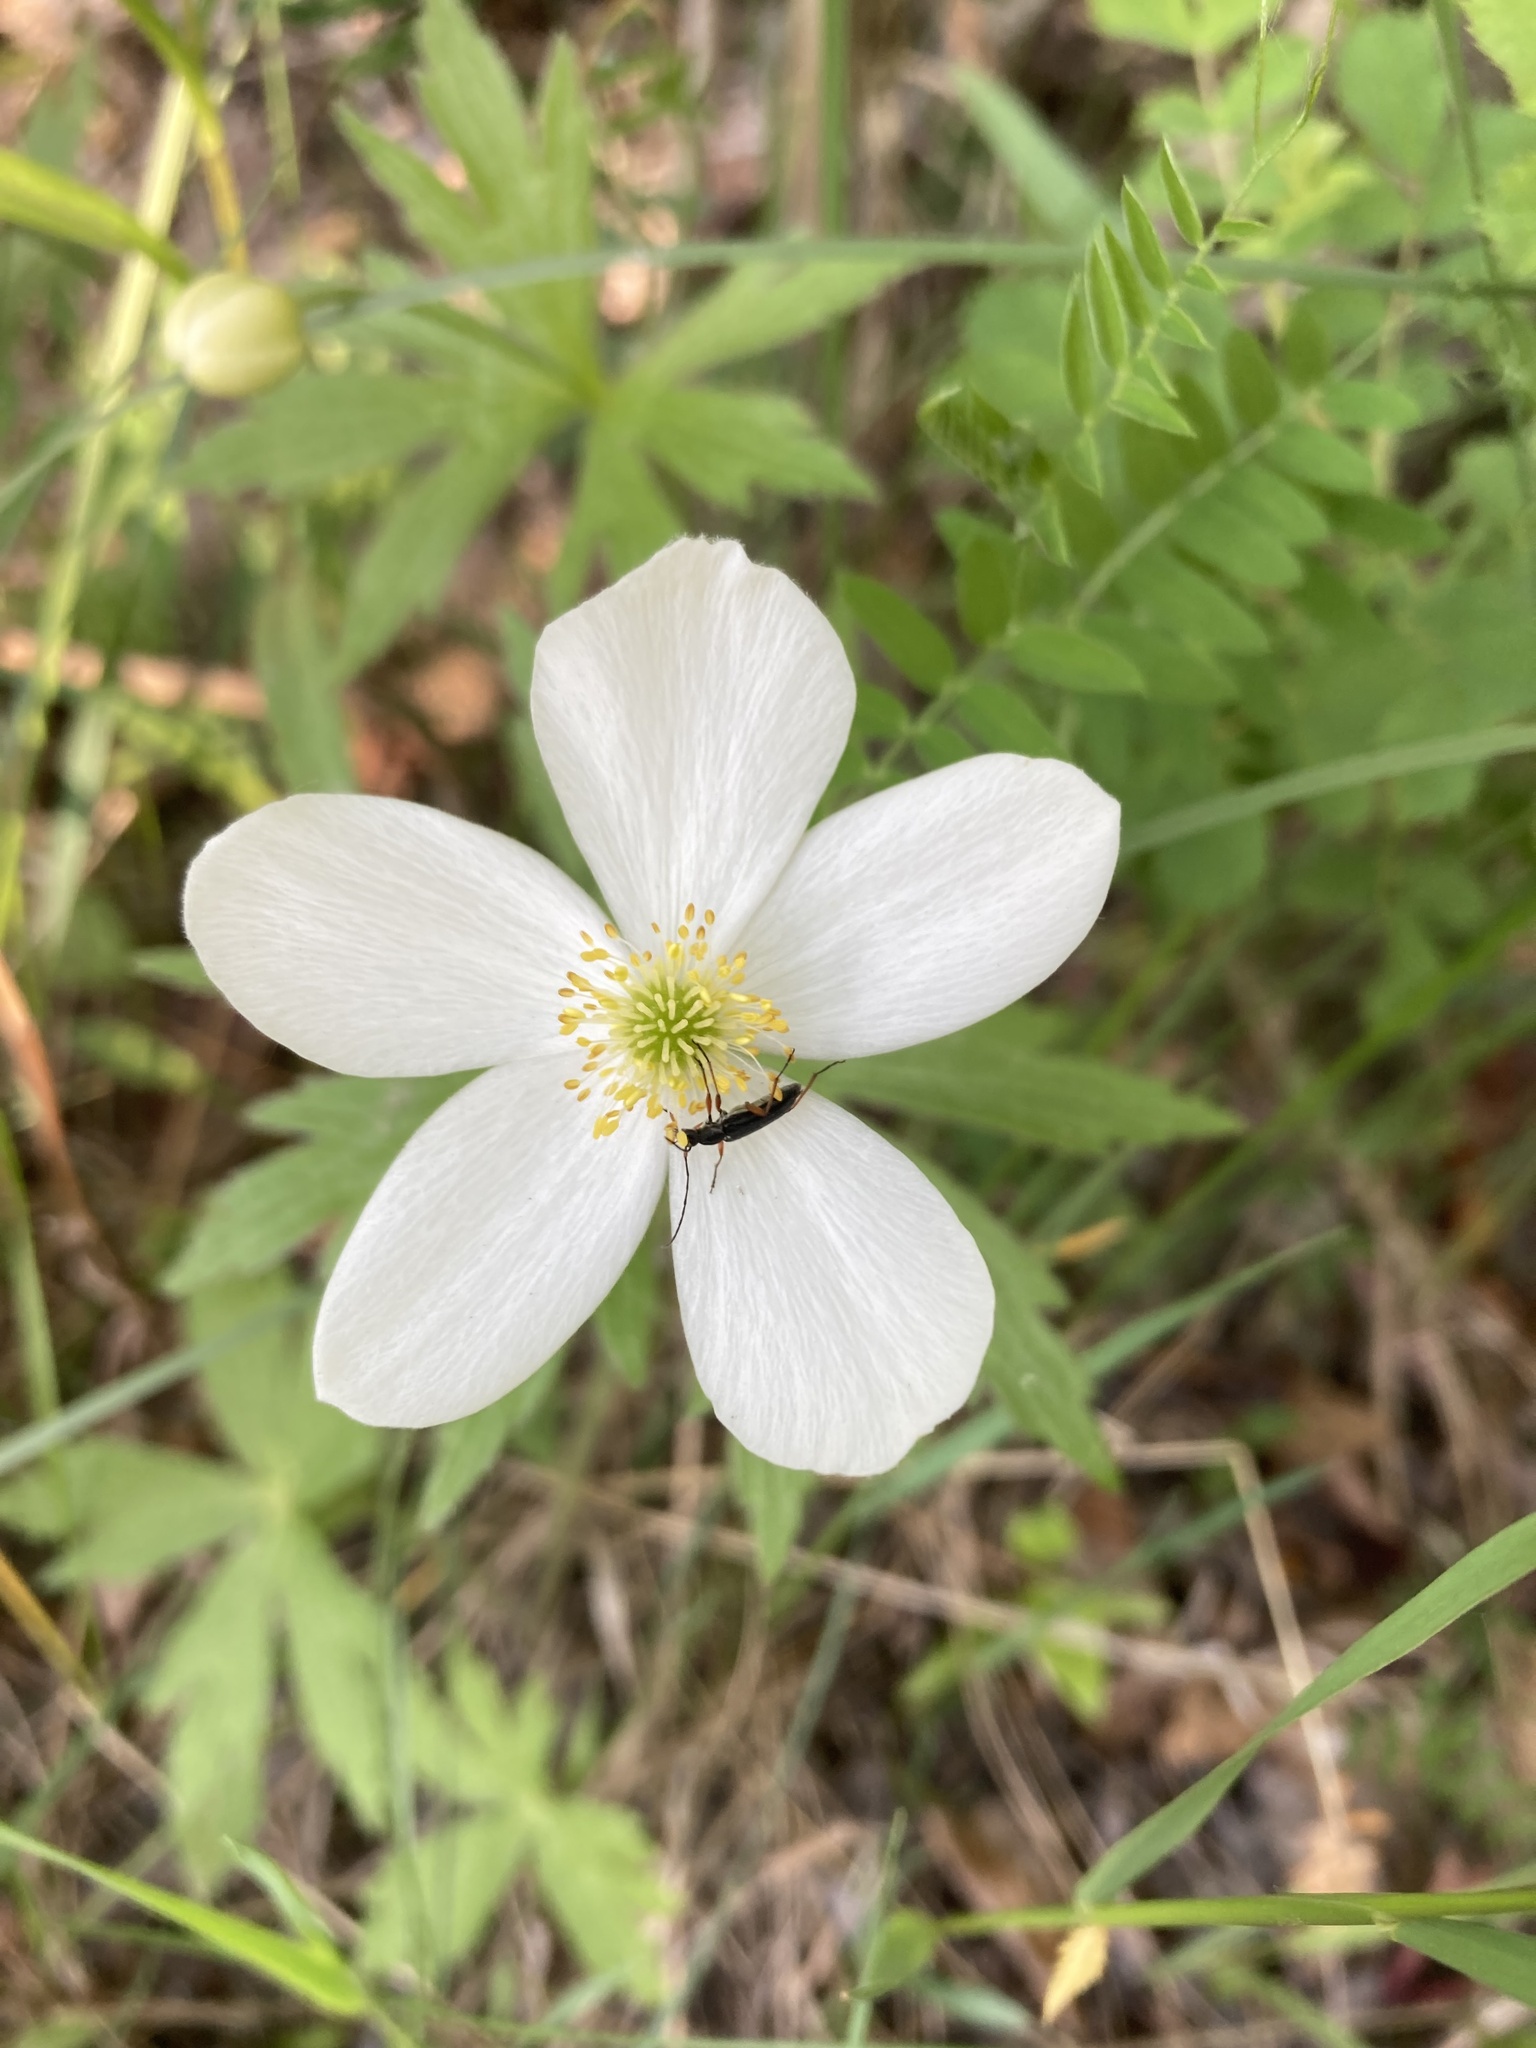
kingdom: Plantae
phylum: Tracheophyta
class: Magnoliopsida
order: Ranunculales
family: Ranunculaceae
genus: Anemonastrum
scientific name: Anemonastrum canadense
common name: Canada anemone
